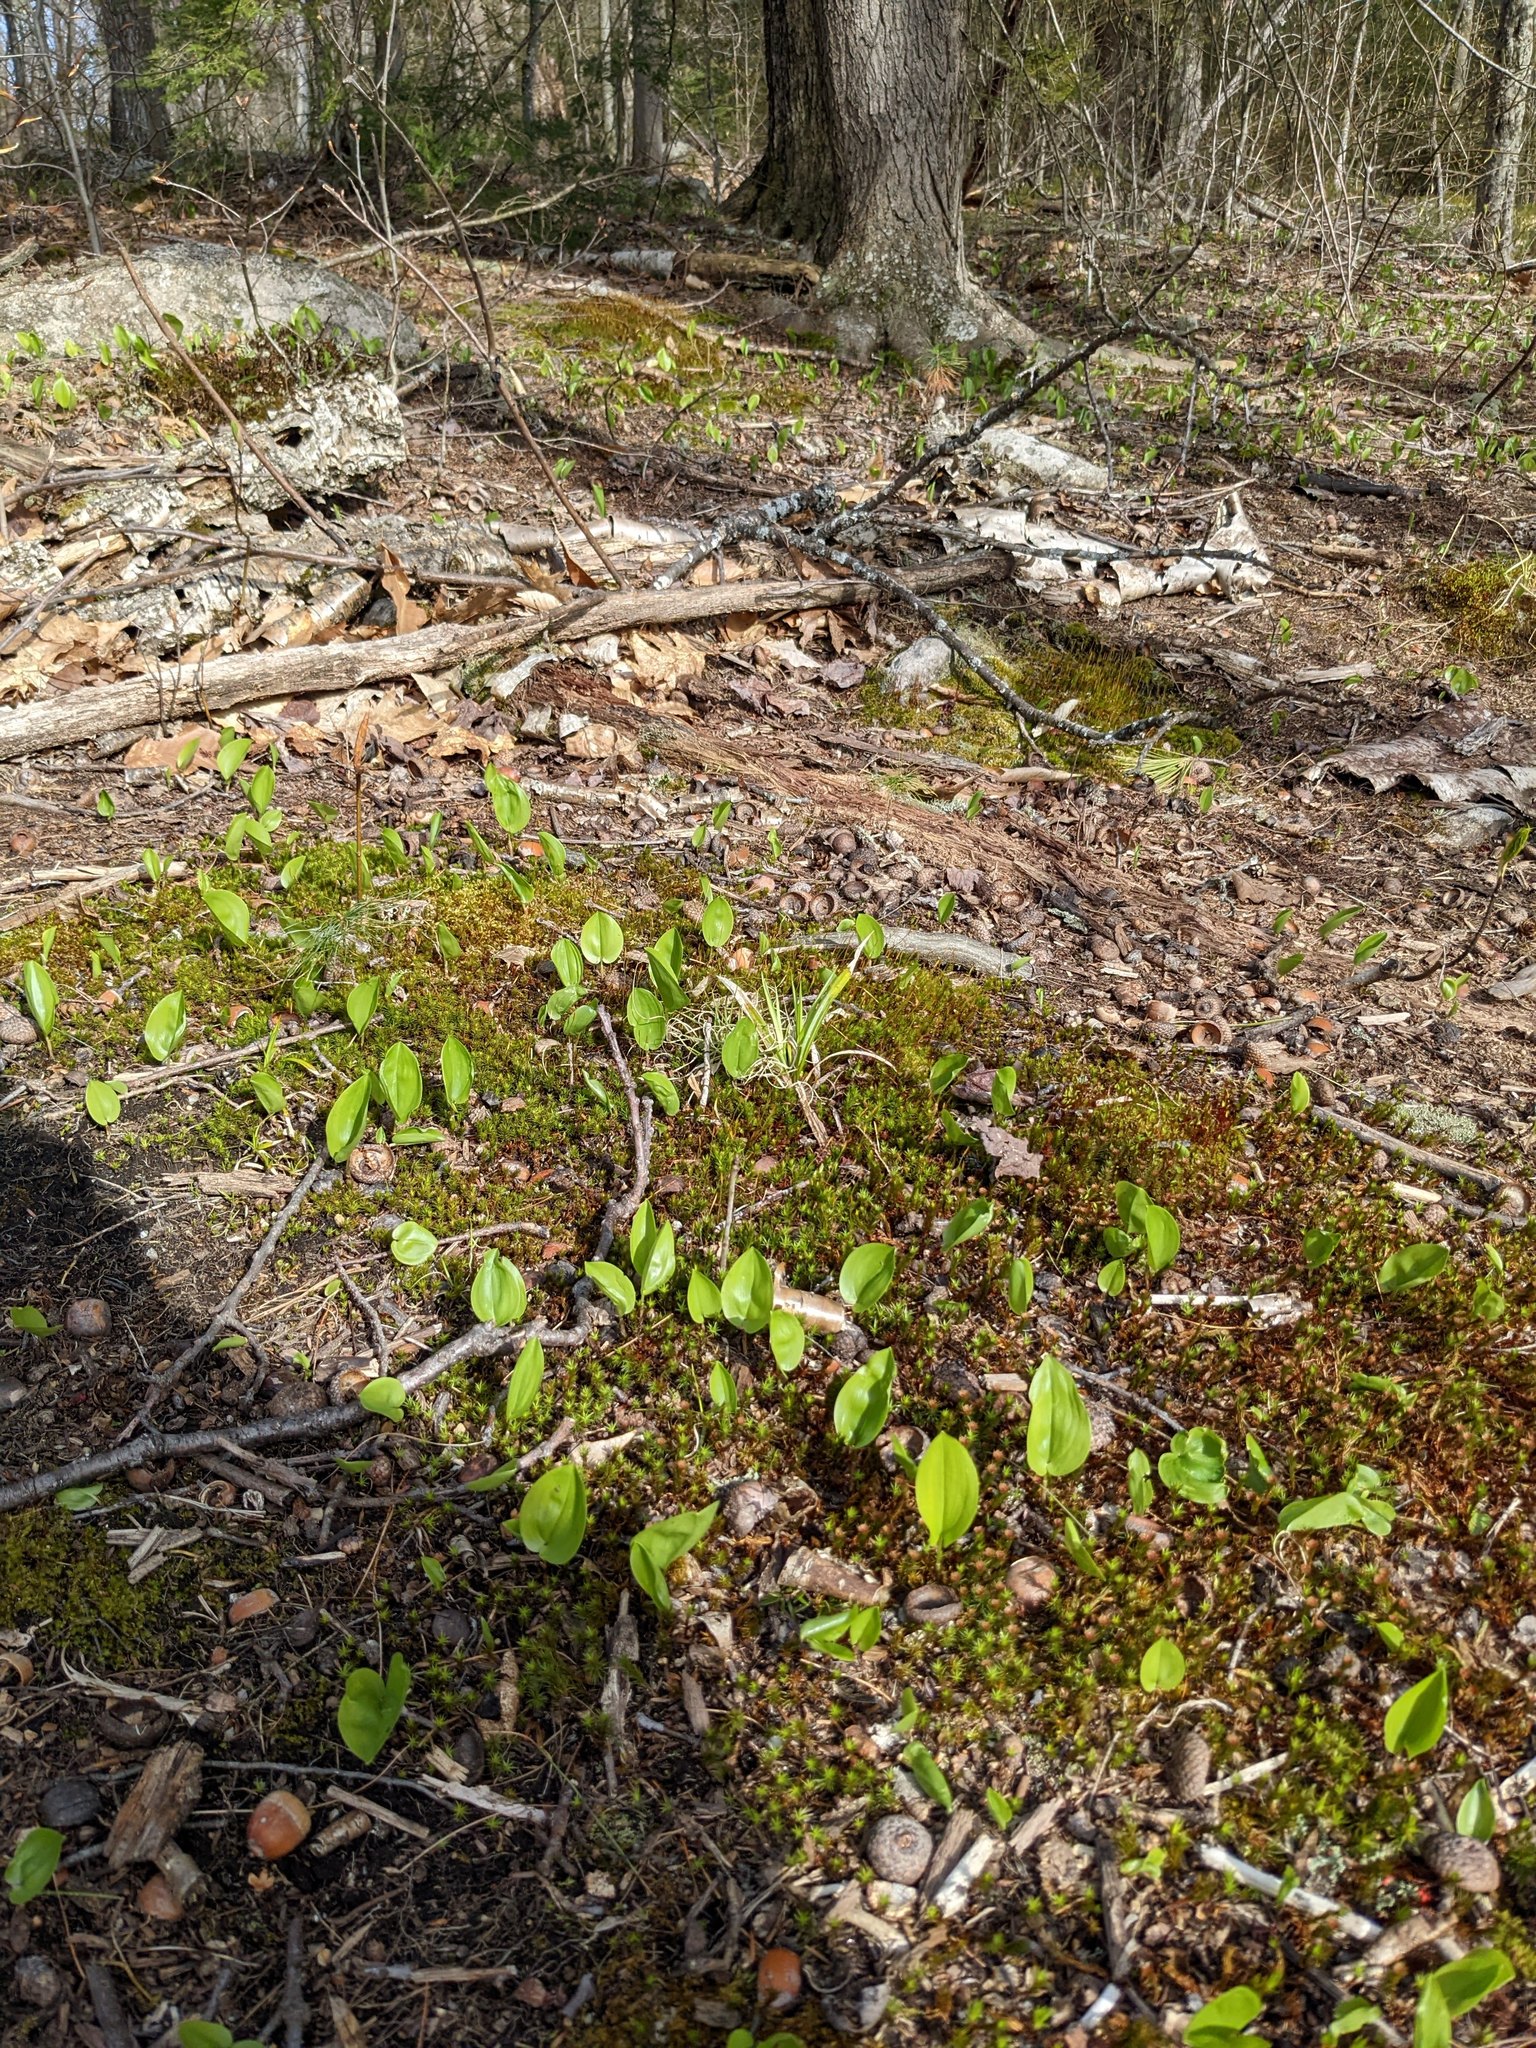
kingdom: Plantae
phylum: Tracheophyta
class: Liliopsida
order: Asparagales
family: Asparagaceae
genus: Maianthemum
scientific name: Maianthemum canadense
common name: False lily-of-the-valley
